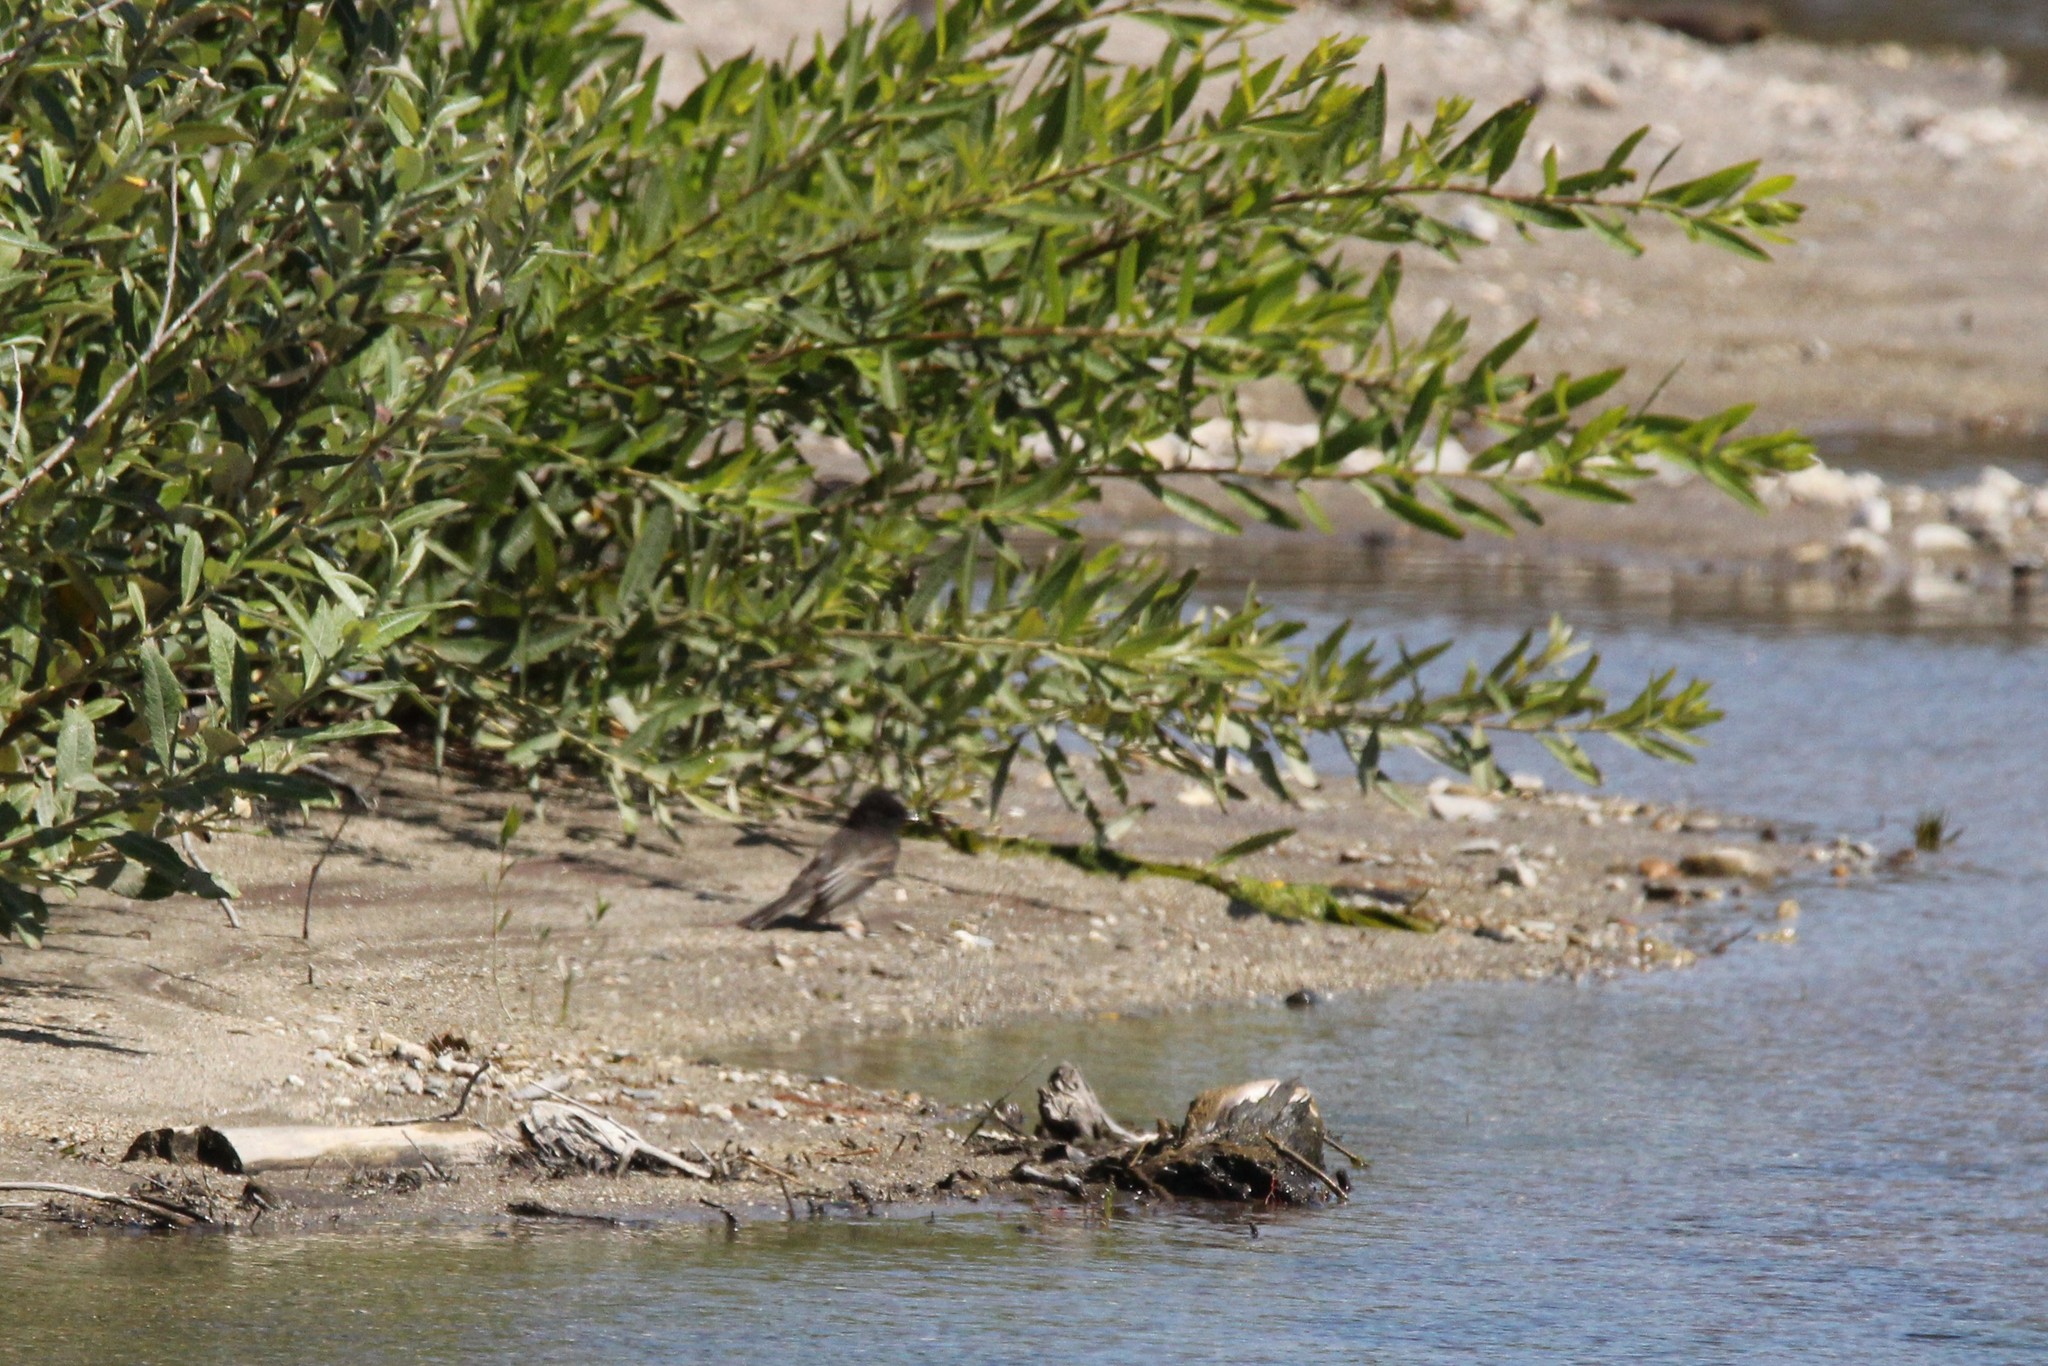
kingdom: Animalia
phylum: Chordata
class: Aves
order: Passeriformes
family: Tyrannidae
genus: Sayornis
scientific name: Sayornis nigricans
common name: Black phoebe
